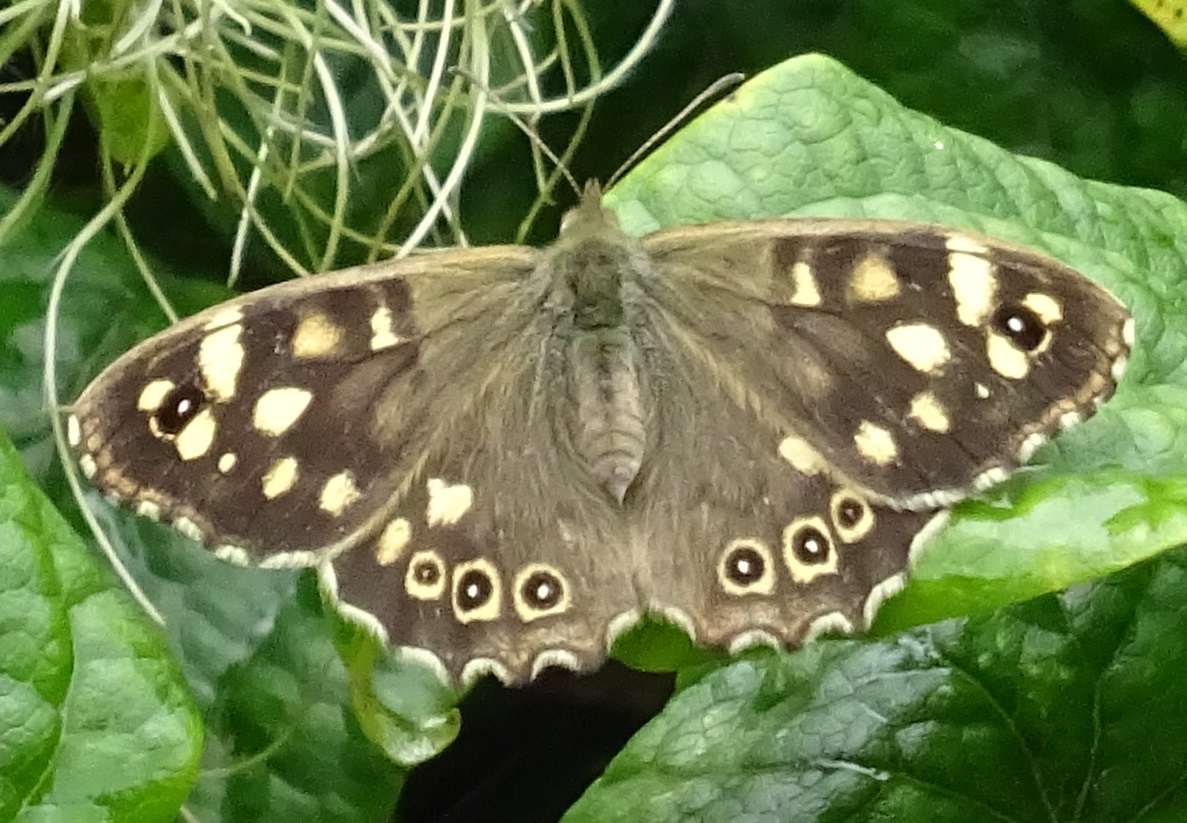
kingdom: Animalia
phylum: Arthropoda
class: Insecta
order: Lepidoptera
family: Nymphalidae
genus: Pararge
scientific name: Pararge aegeria
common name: Speckled wood
